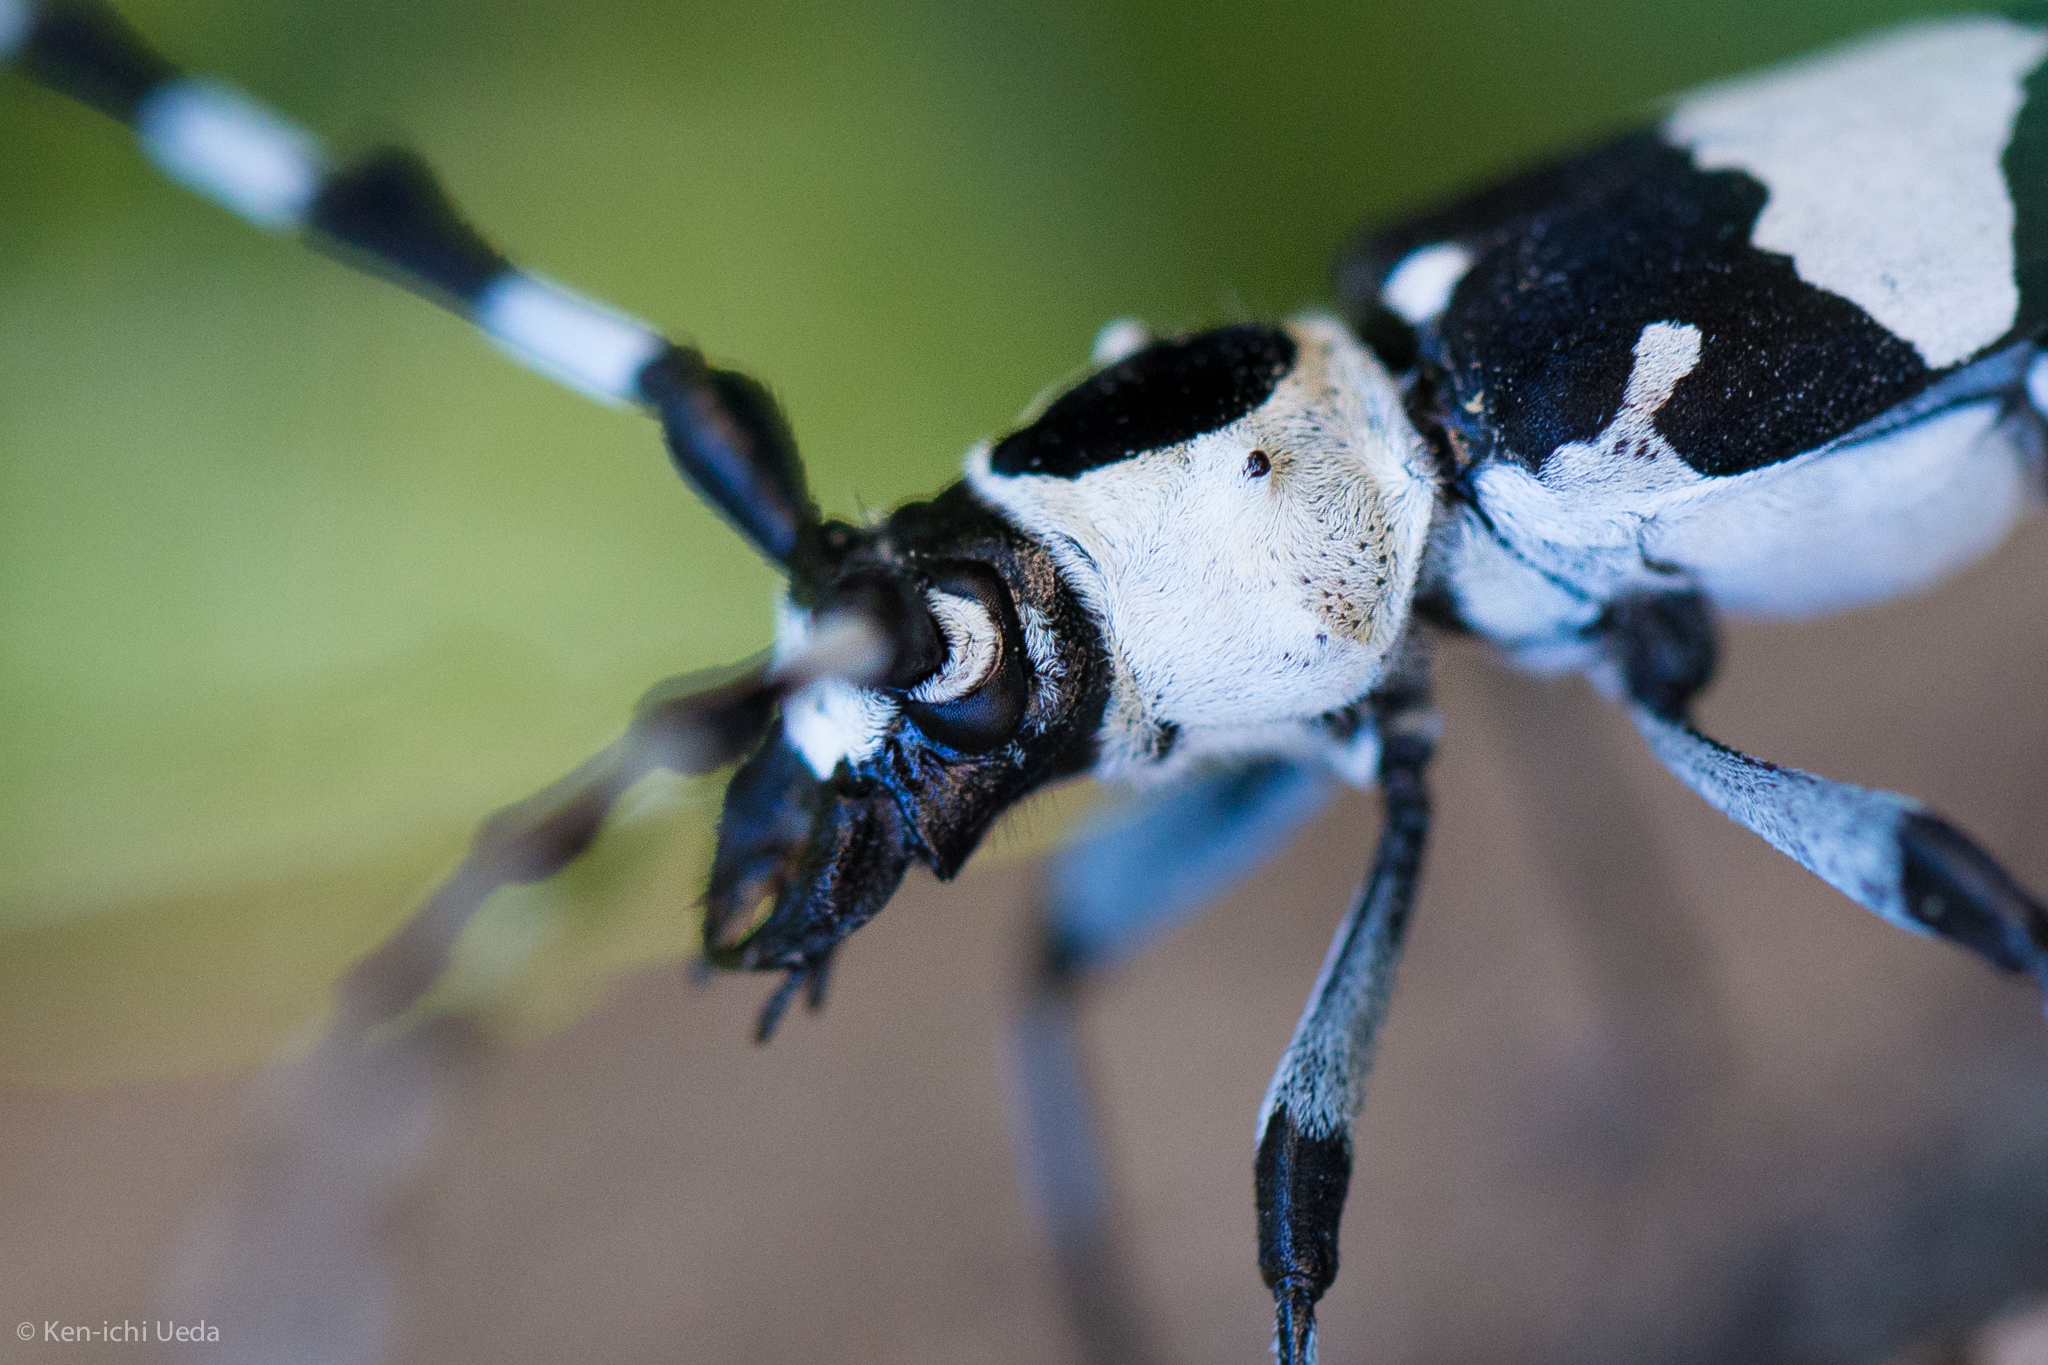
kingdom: Animalia
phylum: Arthropoda
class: Insecta
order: Coleoptera
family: Cerambycidae
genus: Rosalia
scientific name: Rosalia funebris
